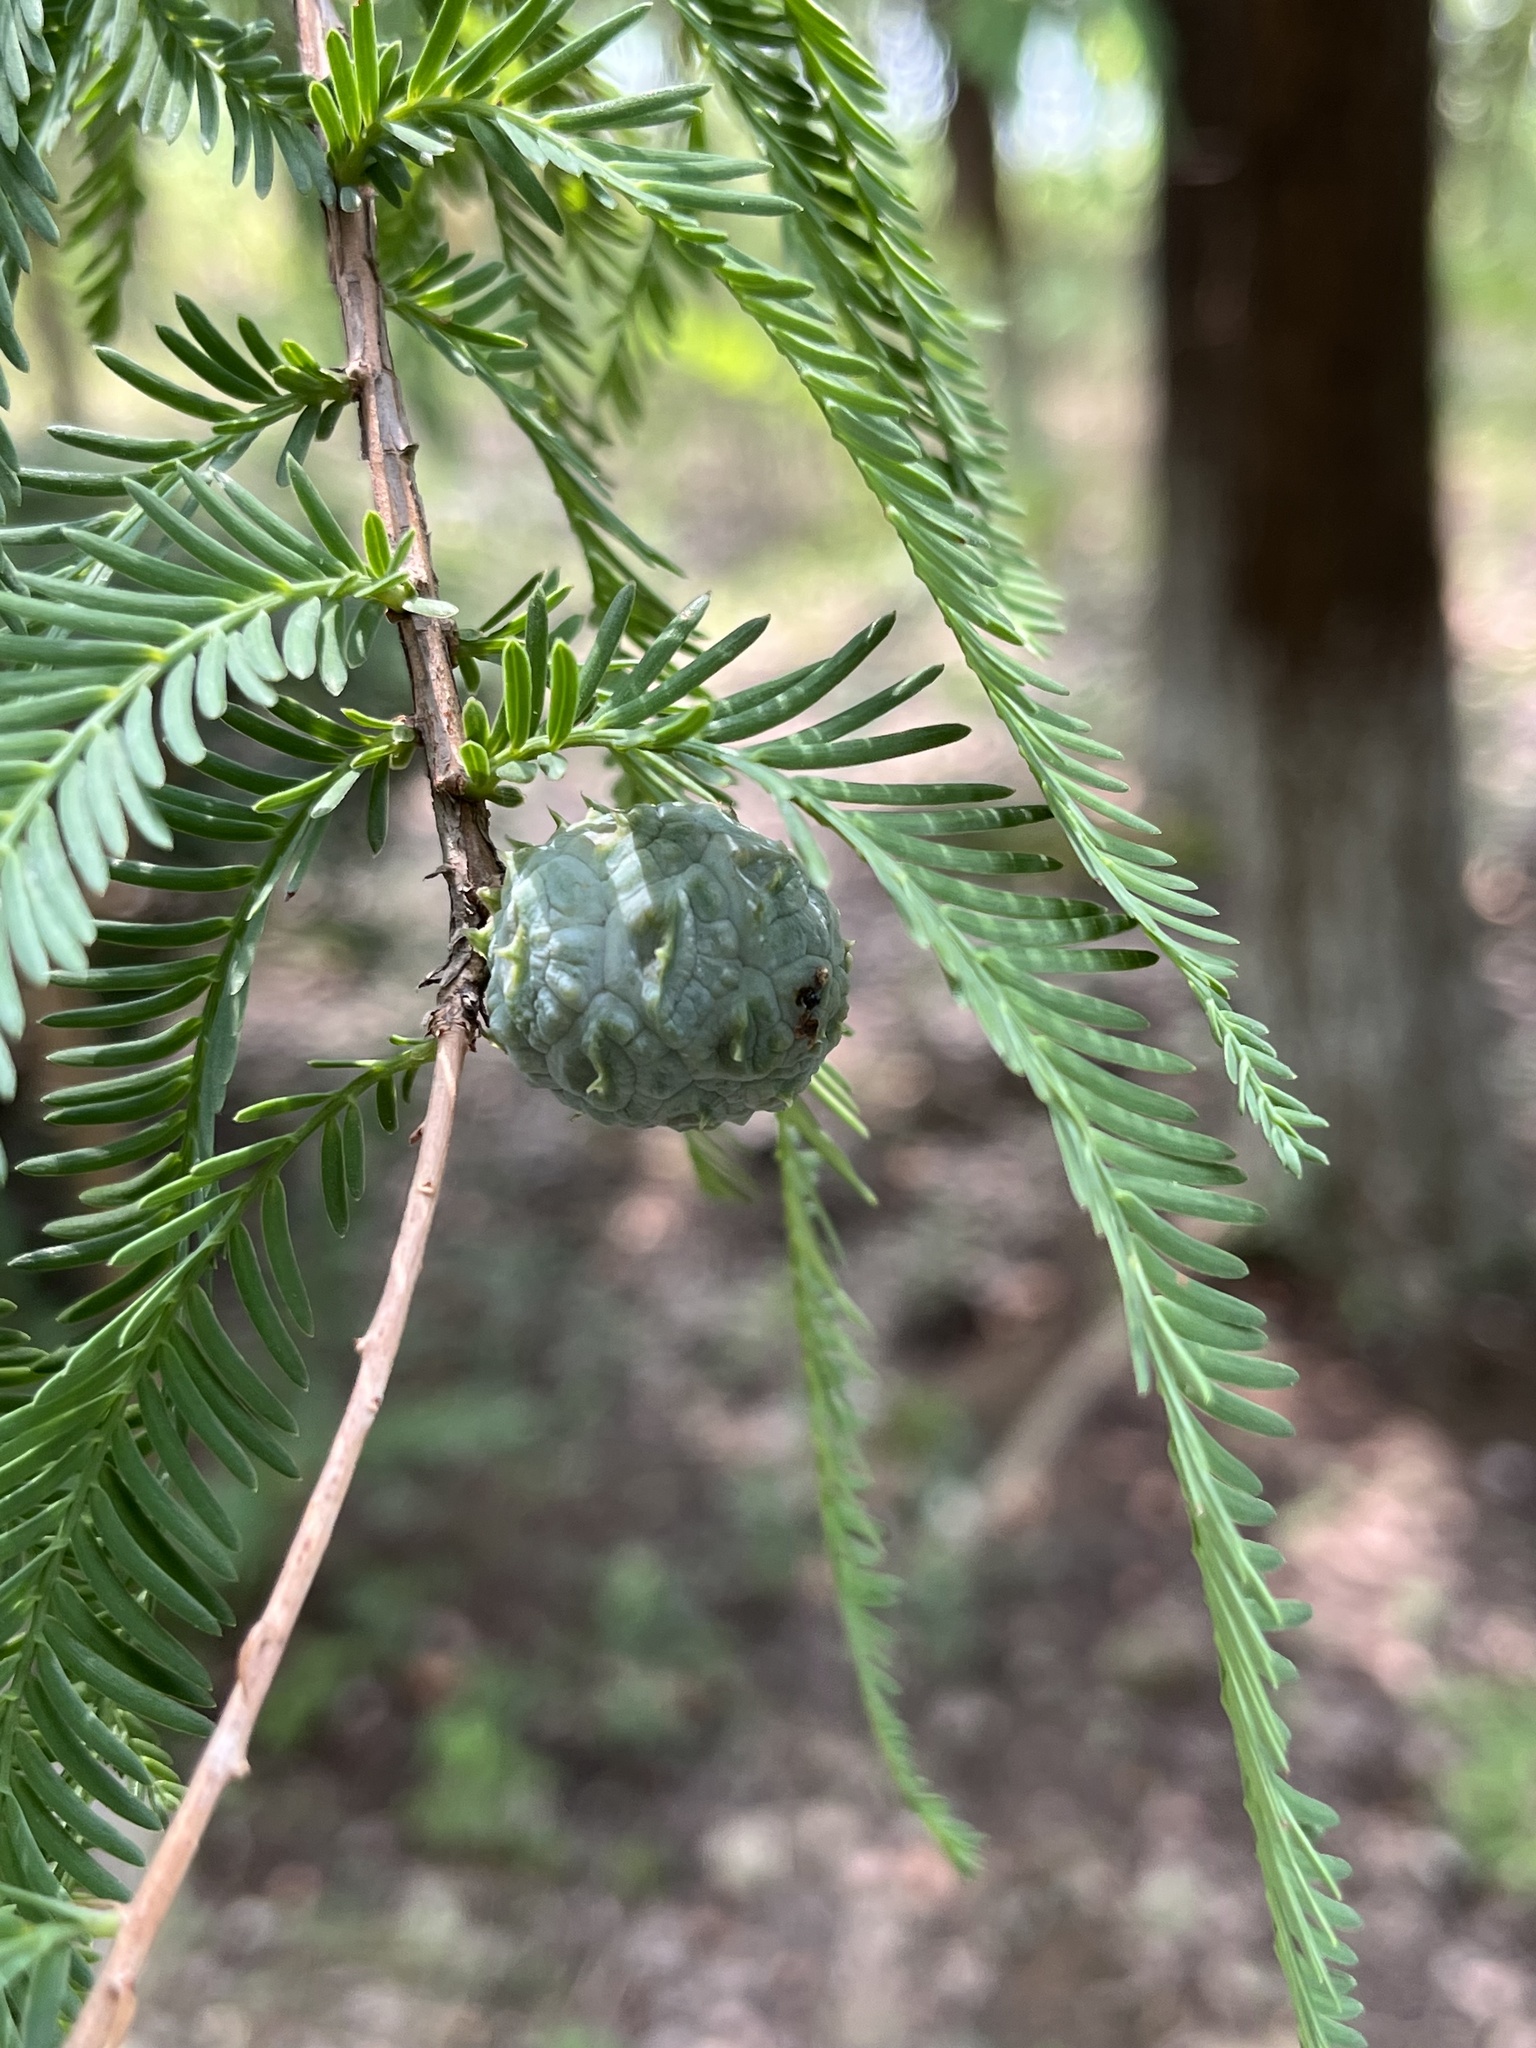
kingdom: Plantae
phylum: Tracheophyta
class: Pinopsida
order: Pinales
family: Cupressaceae
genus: Taxodium
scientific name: Taxodium distichum
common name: Bald cypress
